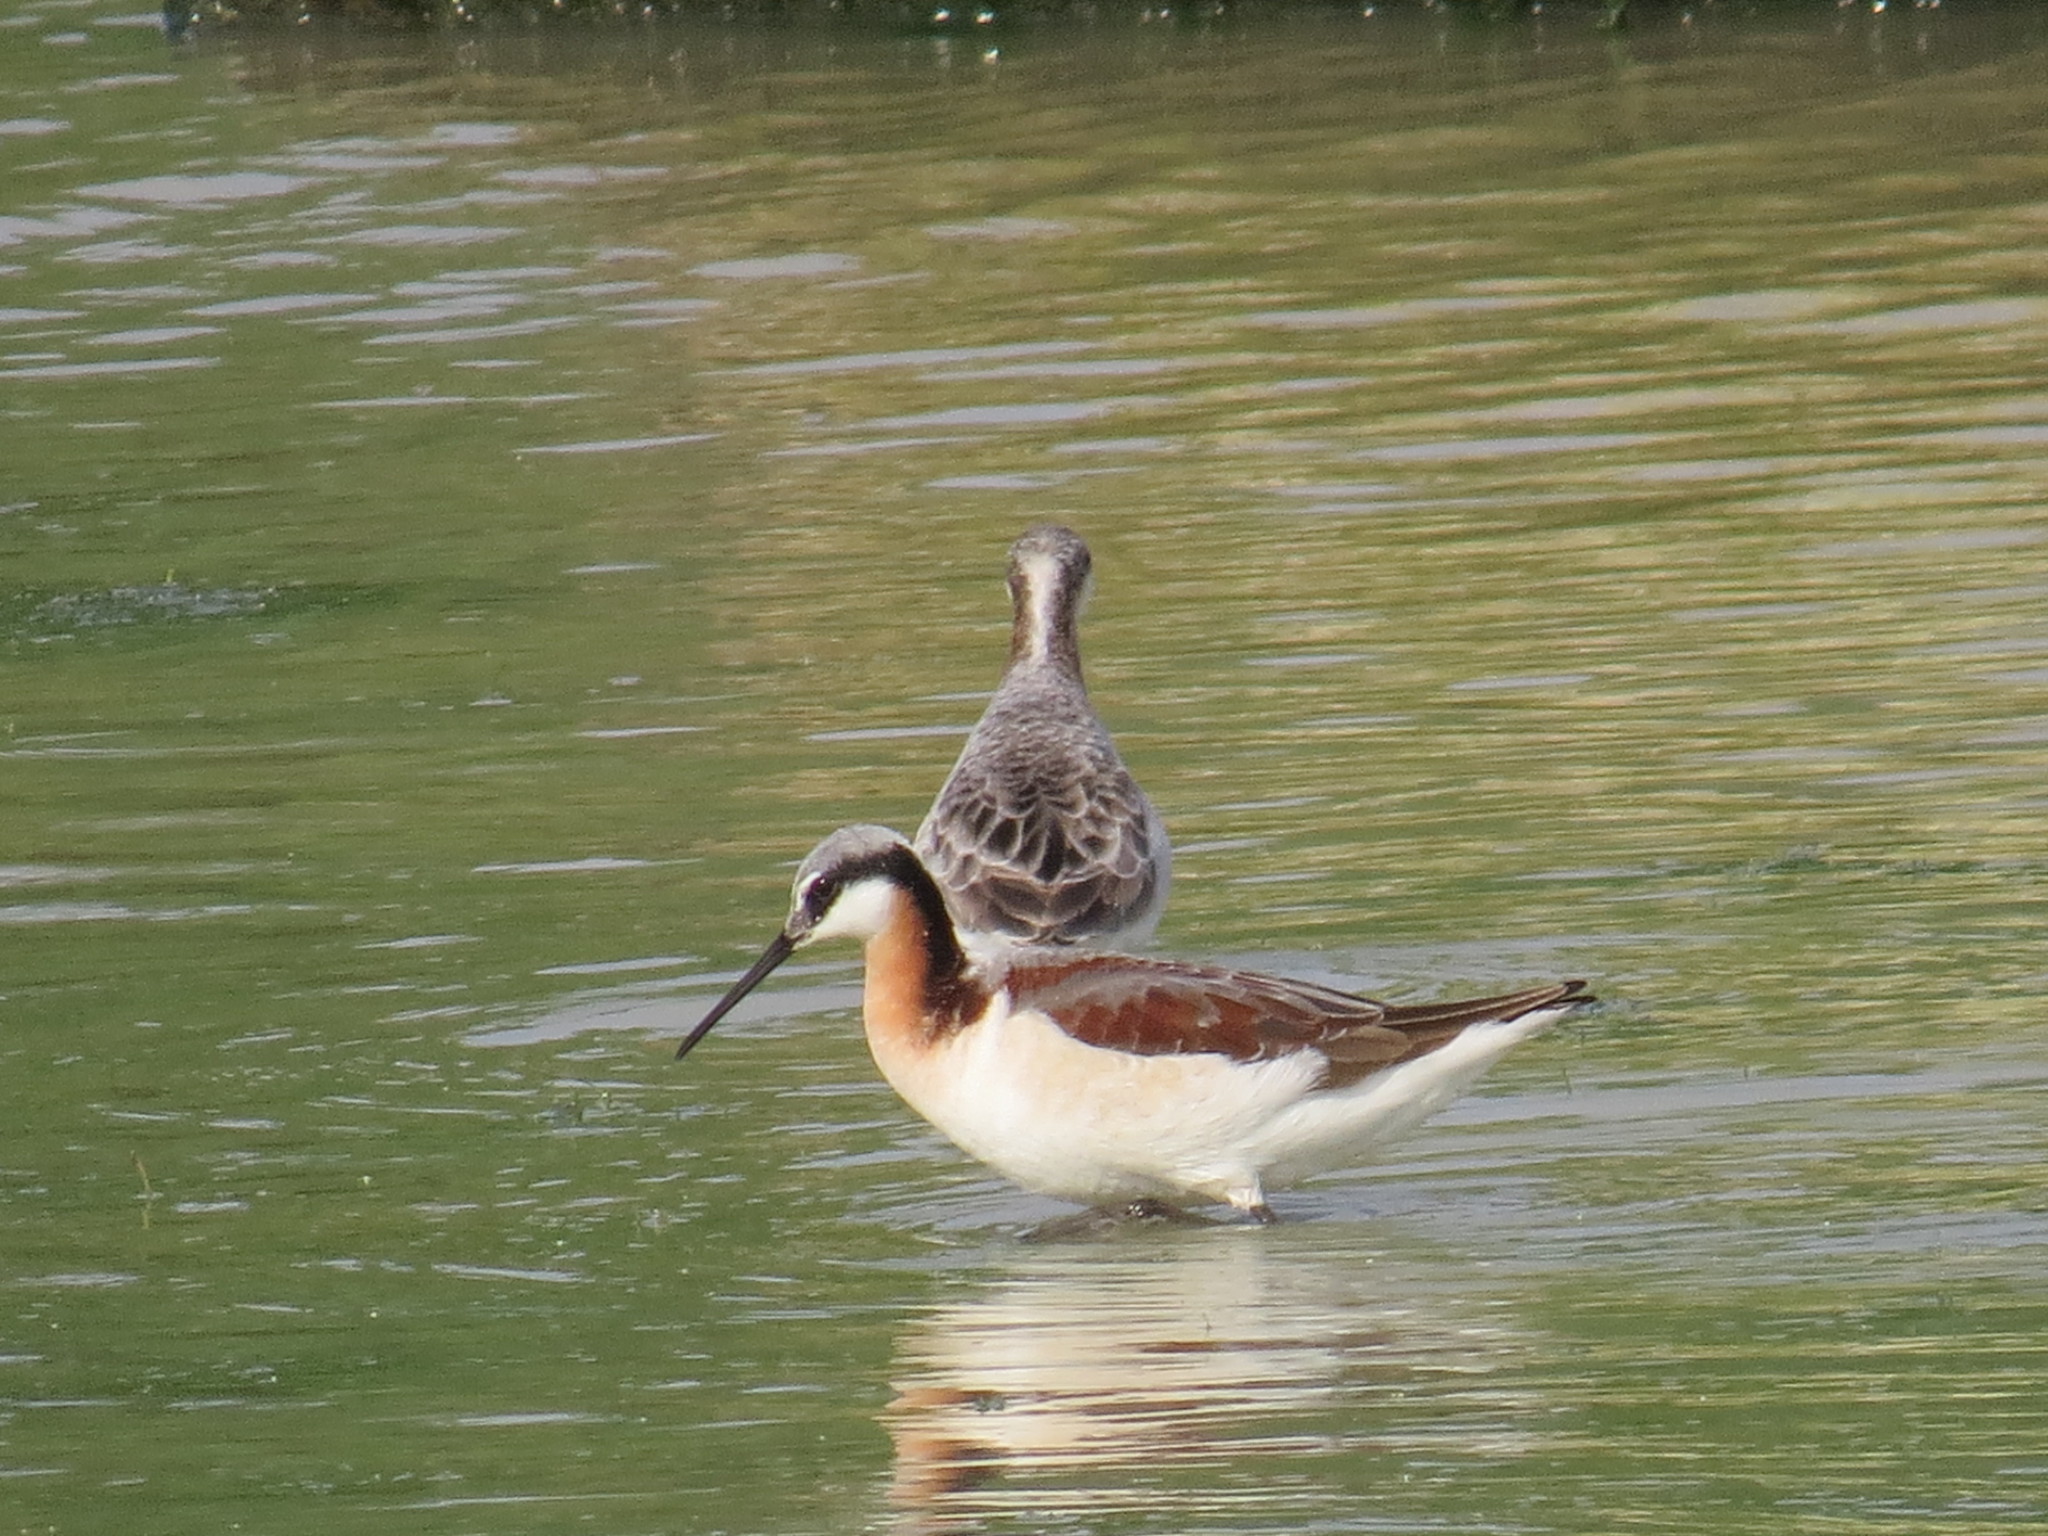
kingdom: Animalia
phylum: Chordata
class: Aves
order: Charadriiformes
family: Scolopacidae
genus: Phalaropus
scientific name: Phalaropus tricolor
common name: Wilson's phalarope
